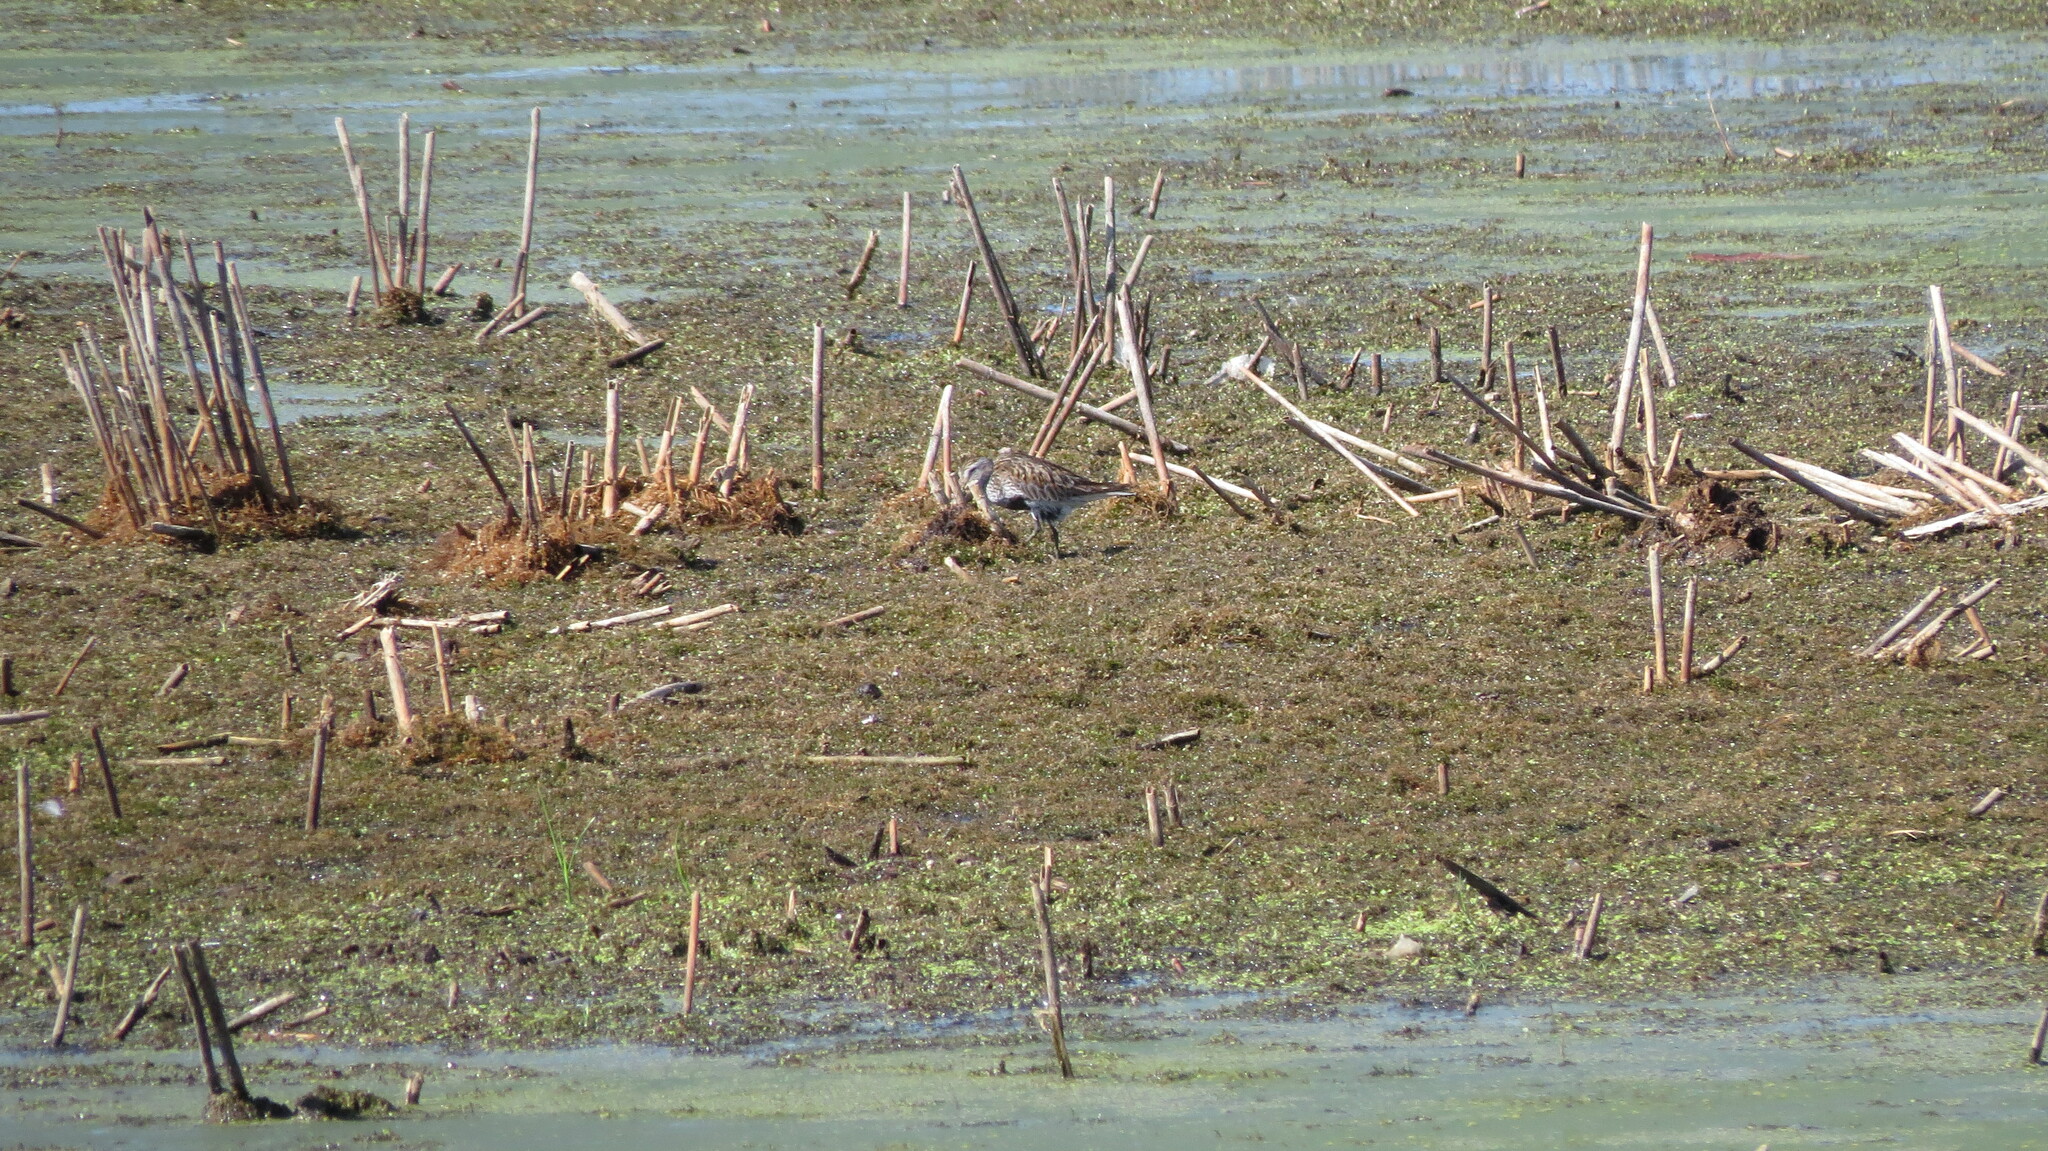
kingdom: Animalia
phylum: Chordata
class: Aves
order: Charadriiformes
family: Scolopacidae
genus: Calidris
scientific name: Calidris alpina
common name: Dunlin
